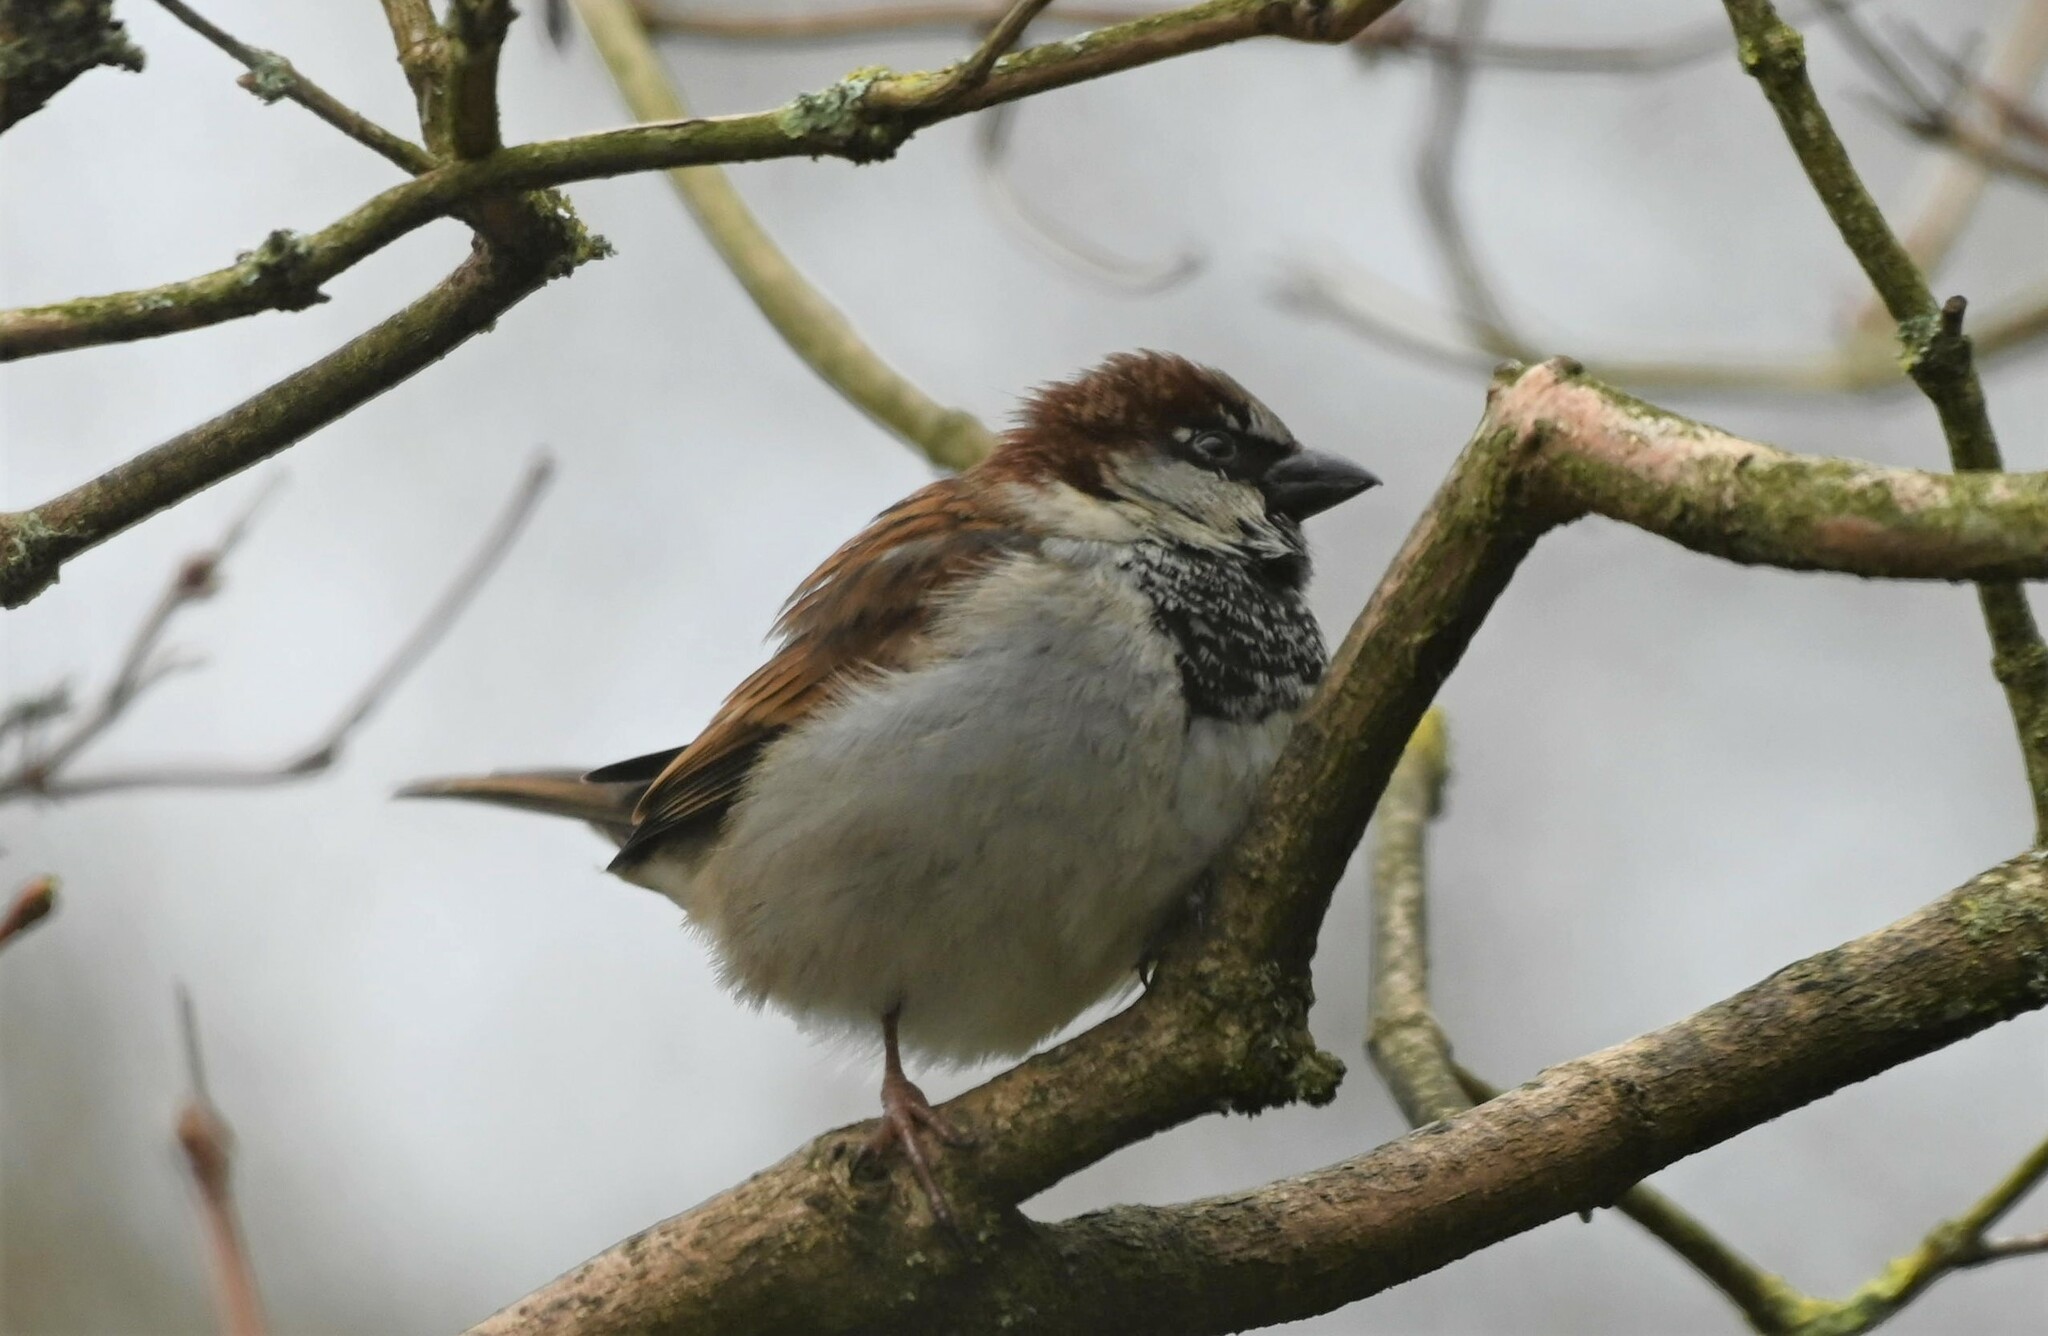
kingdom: Animalia
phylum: Chordata
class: Aves
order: Passeriformes
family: Passeridae
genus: Passer
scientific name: Passer domesticus
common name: House sparrow
